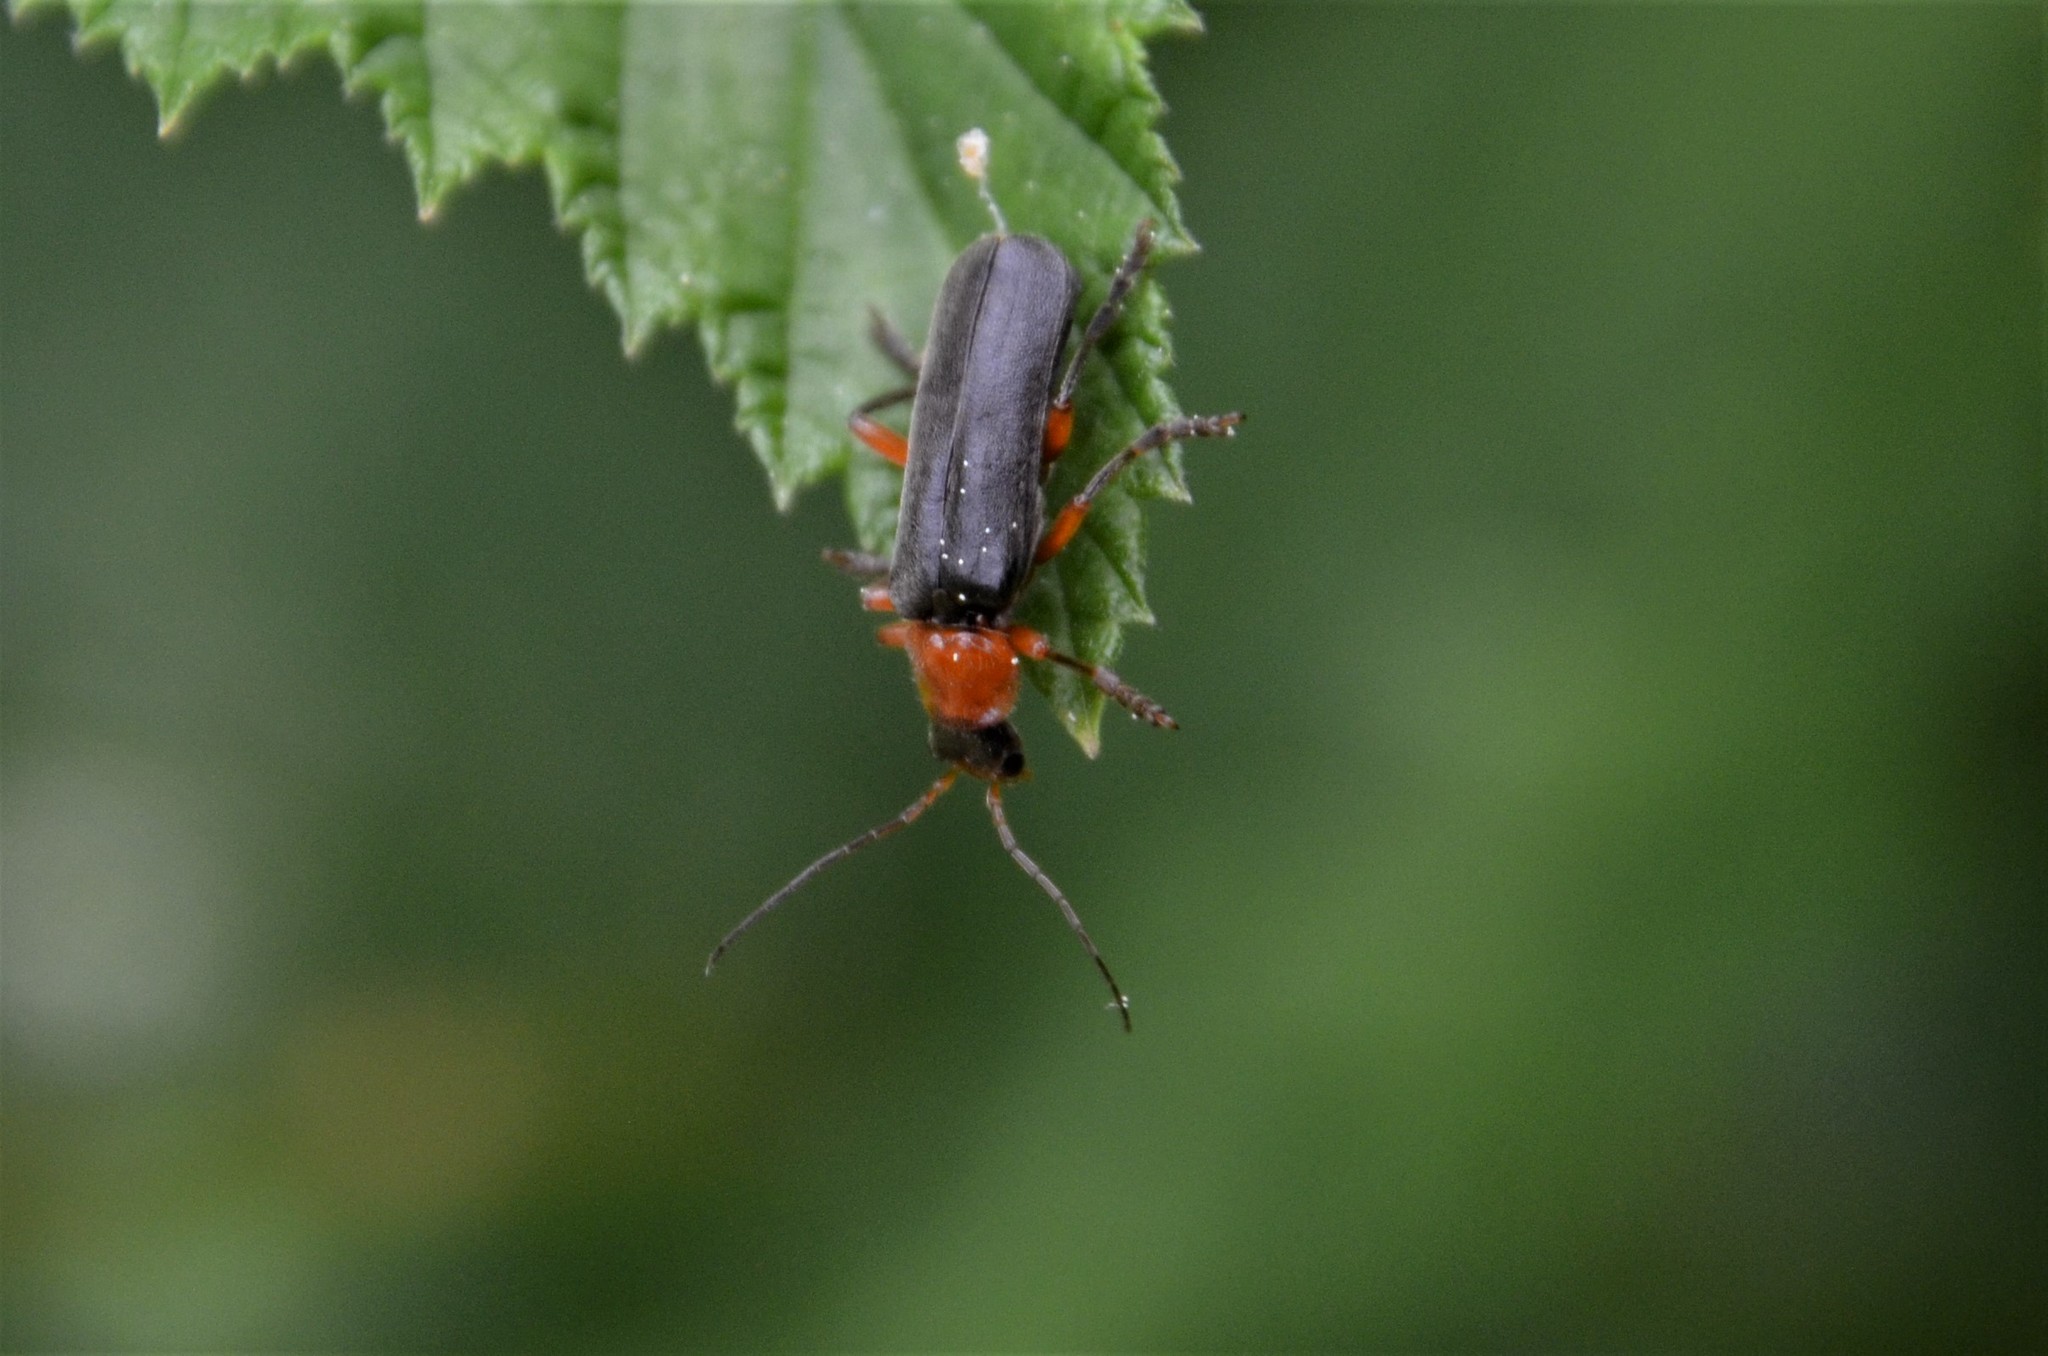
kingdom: Animalia
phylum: Arthropoda
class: Insecta
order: Coleoptera
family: Cantharidae
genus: Cantharis
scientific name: Cantharis pellucida
